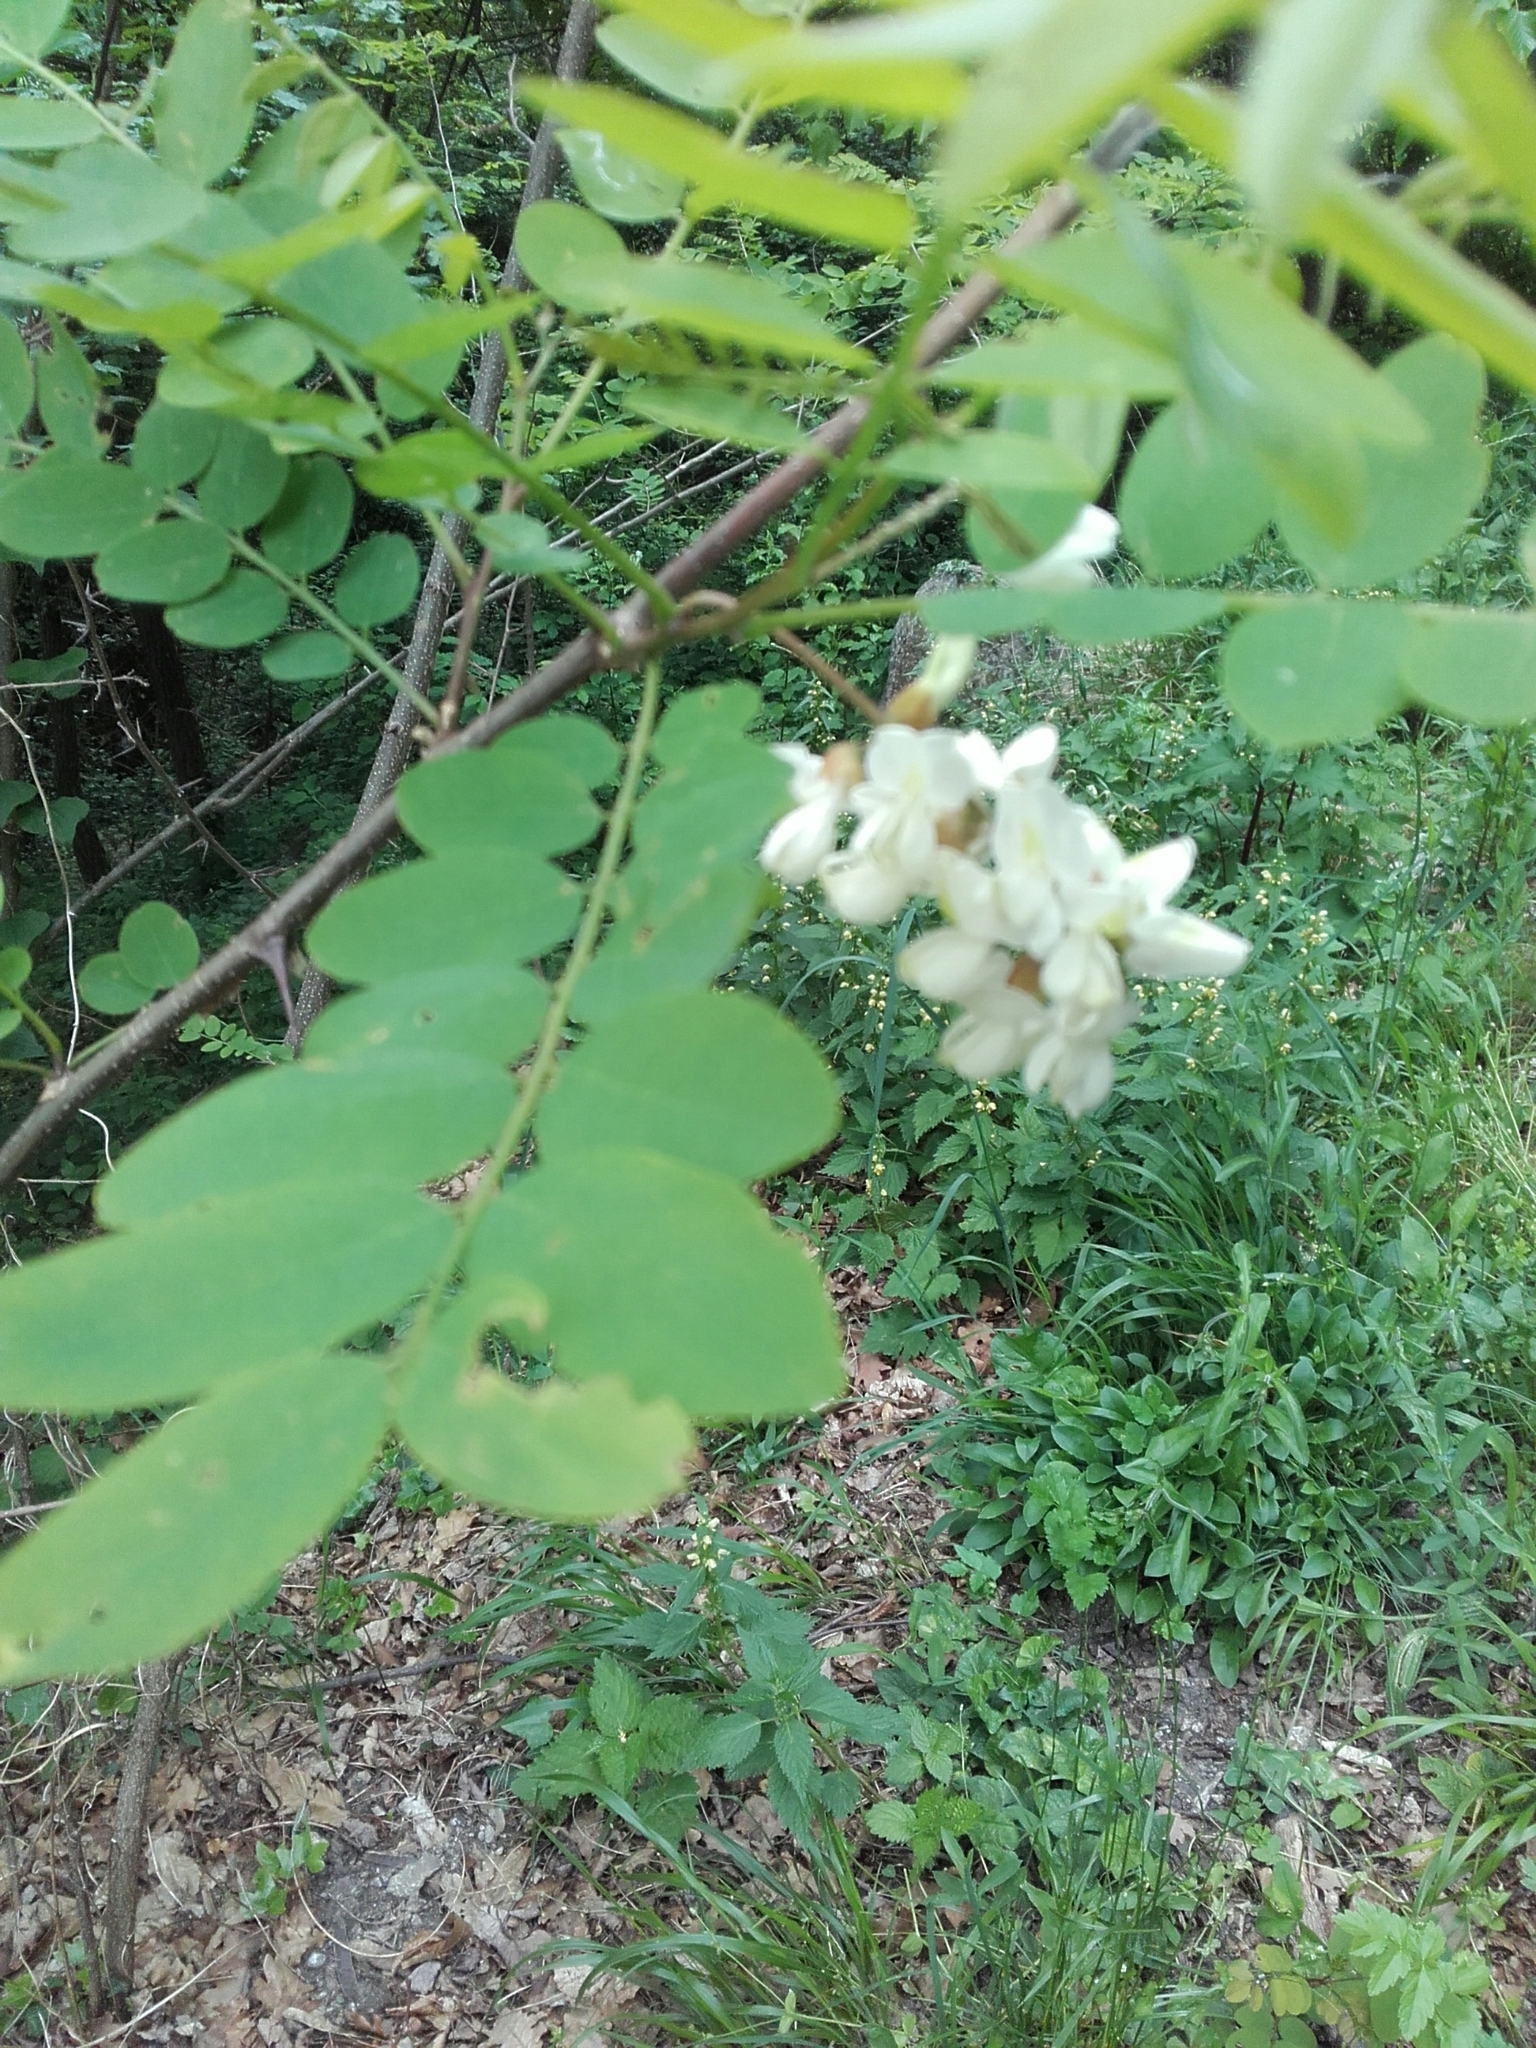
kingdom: Plantae
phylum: Tracheophyta
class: Magnoliopsida
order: Fabales
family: Fabaceae
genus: Robinia
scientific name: Robinia pseudoacacia
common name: Black locust
